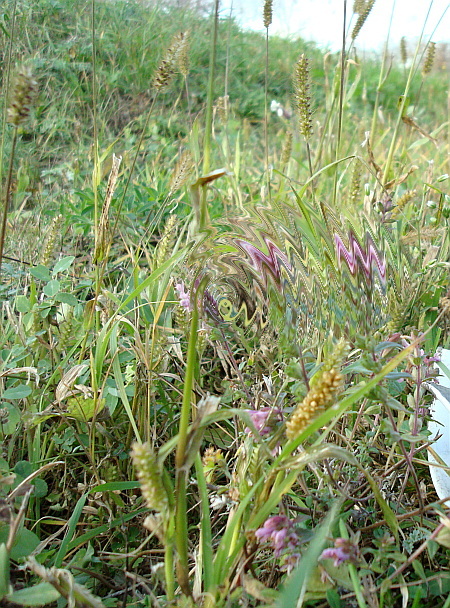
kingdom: Plantae
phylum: Tracheophyta
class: Liliopsida
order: Poales
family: Poaceae
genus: Setaria
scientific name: Setaria pumila
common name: Yellow bristle-grass
